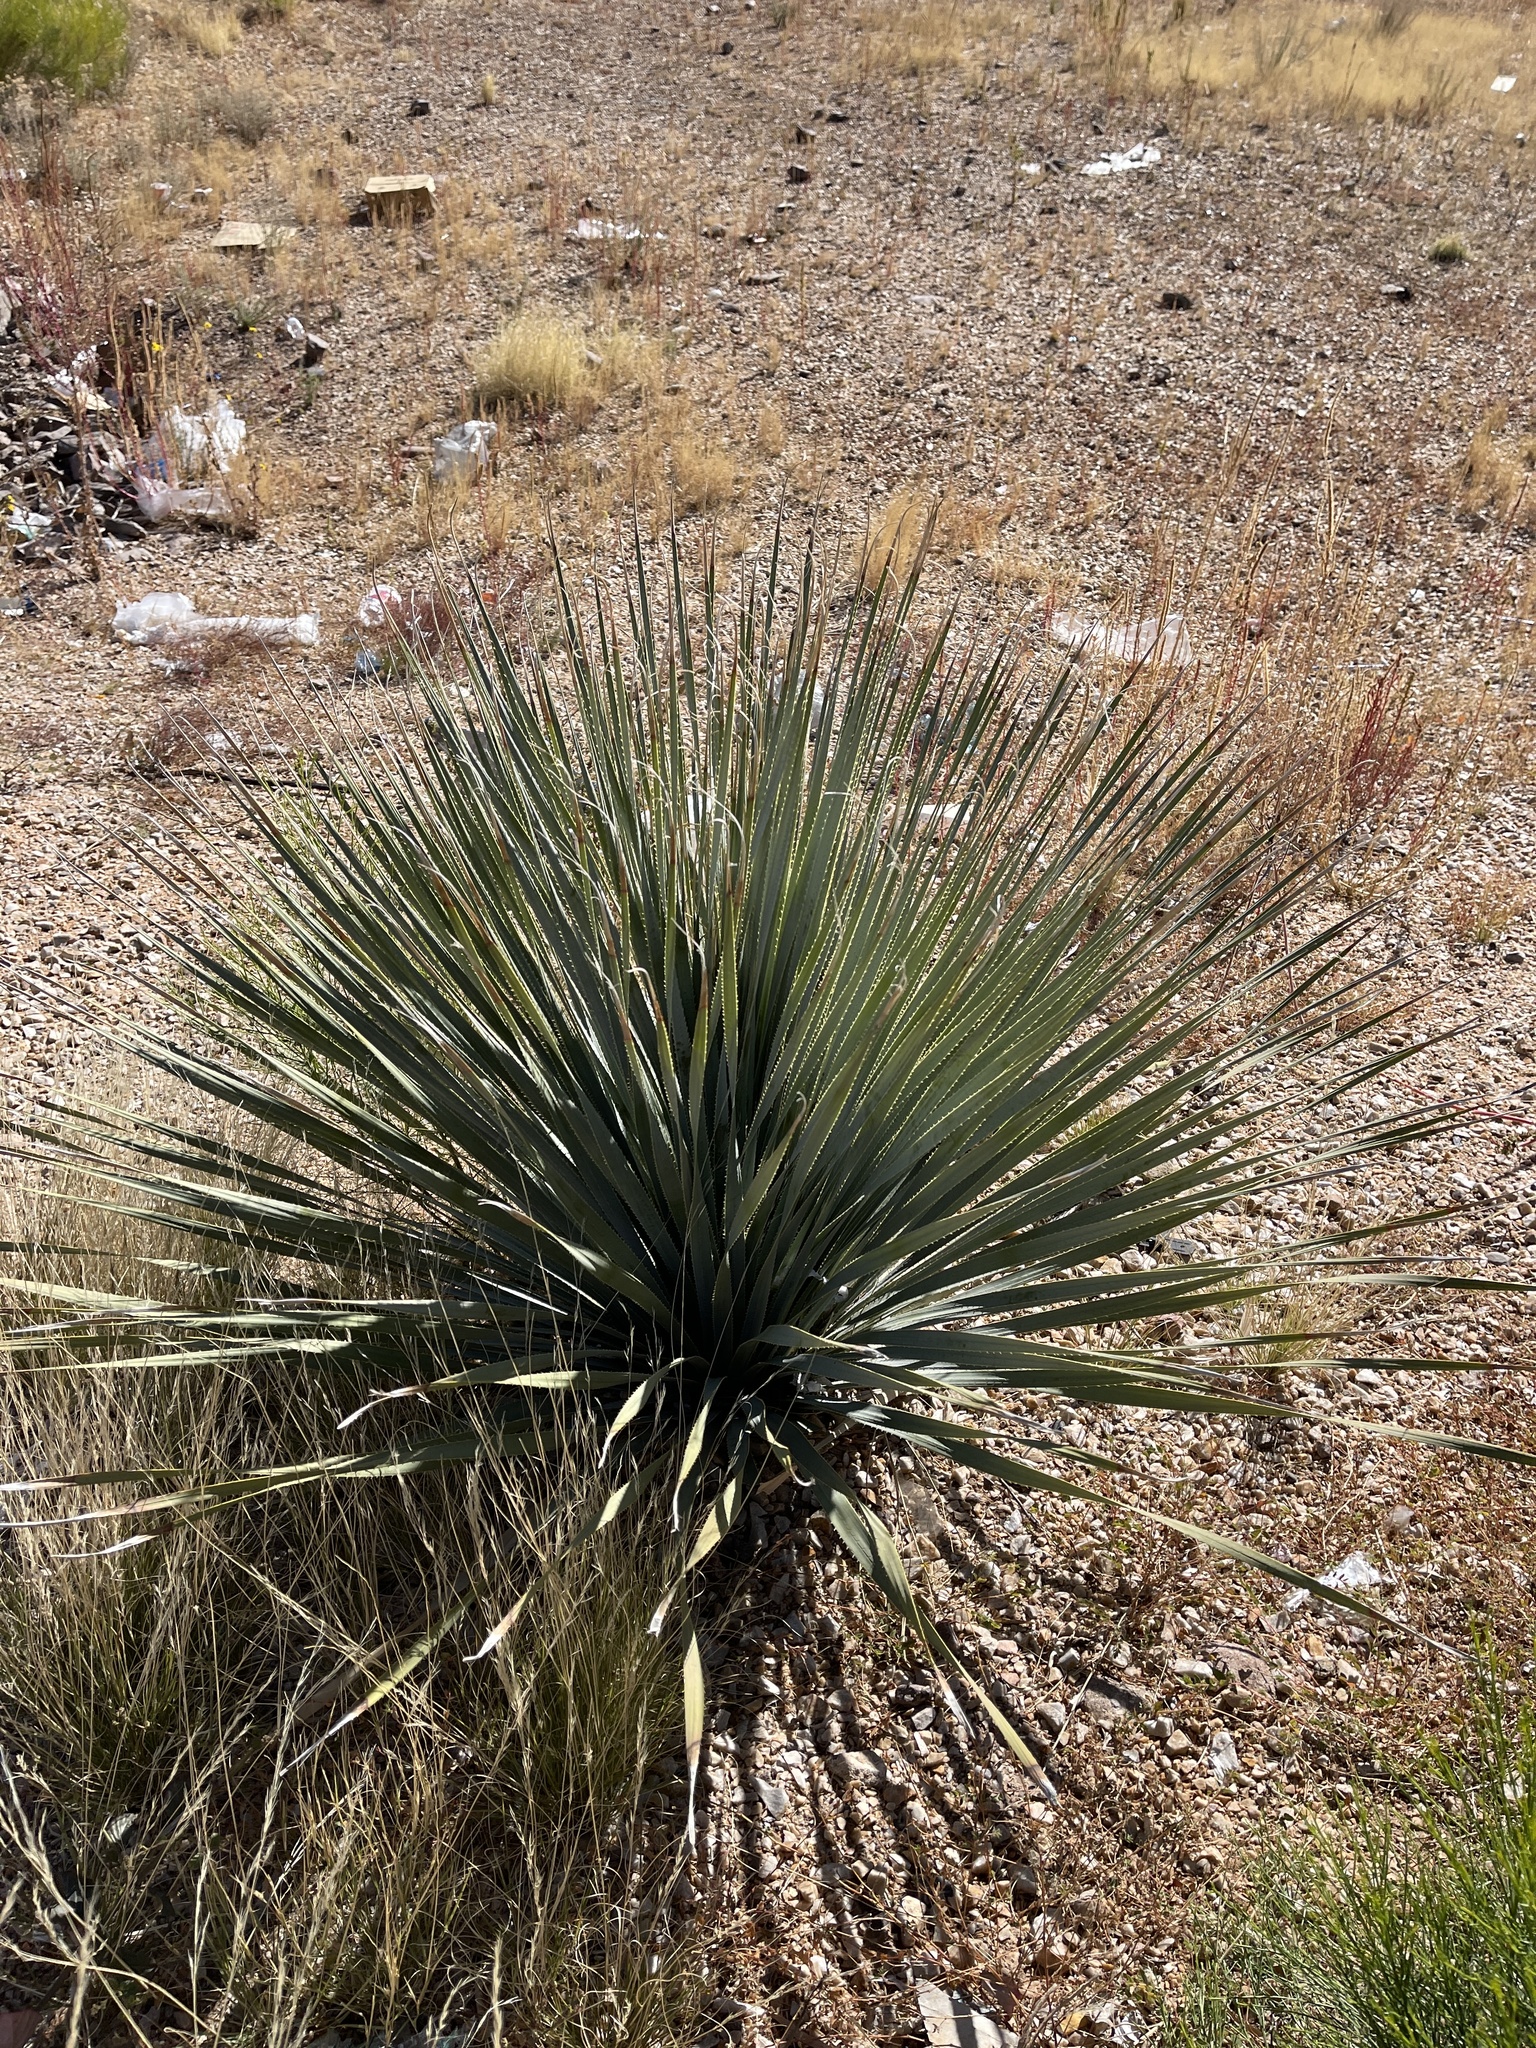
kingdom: Plantae
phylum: Tracheophyta
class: Liliopsida
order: Asparagales
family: Asparagaceae
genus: Dasylirion
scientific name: Dasylirion wheeleri
